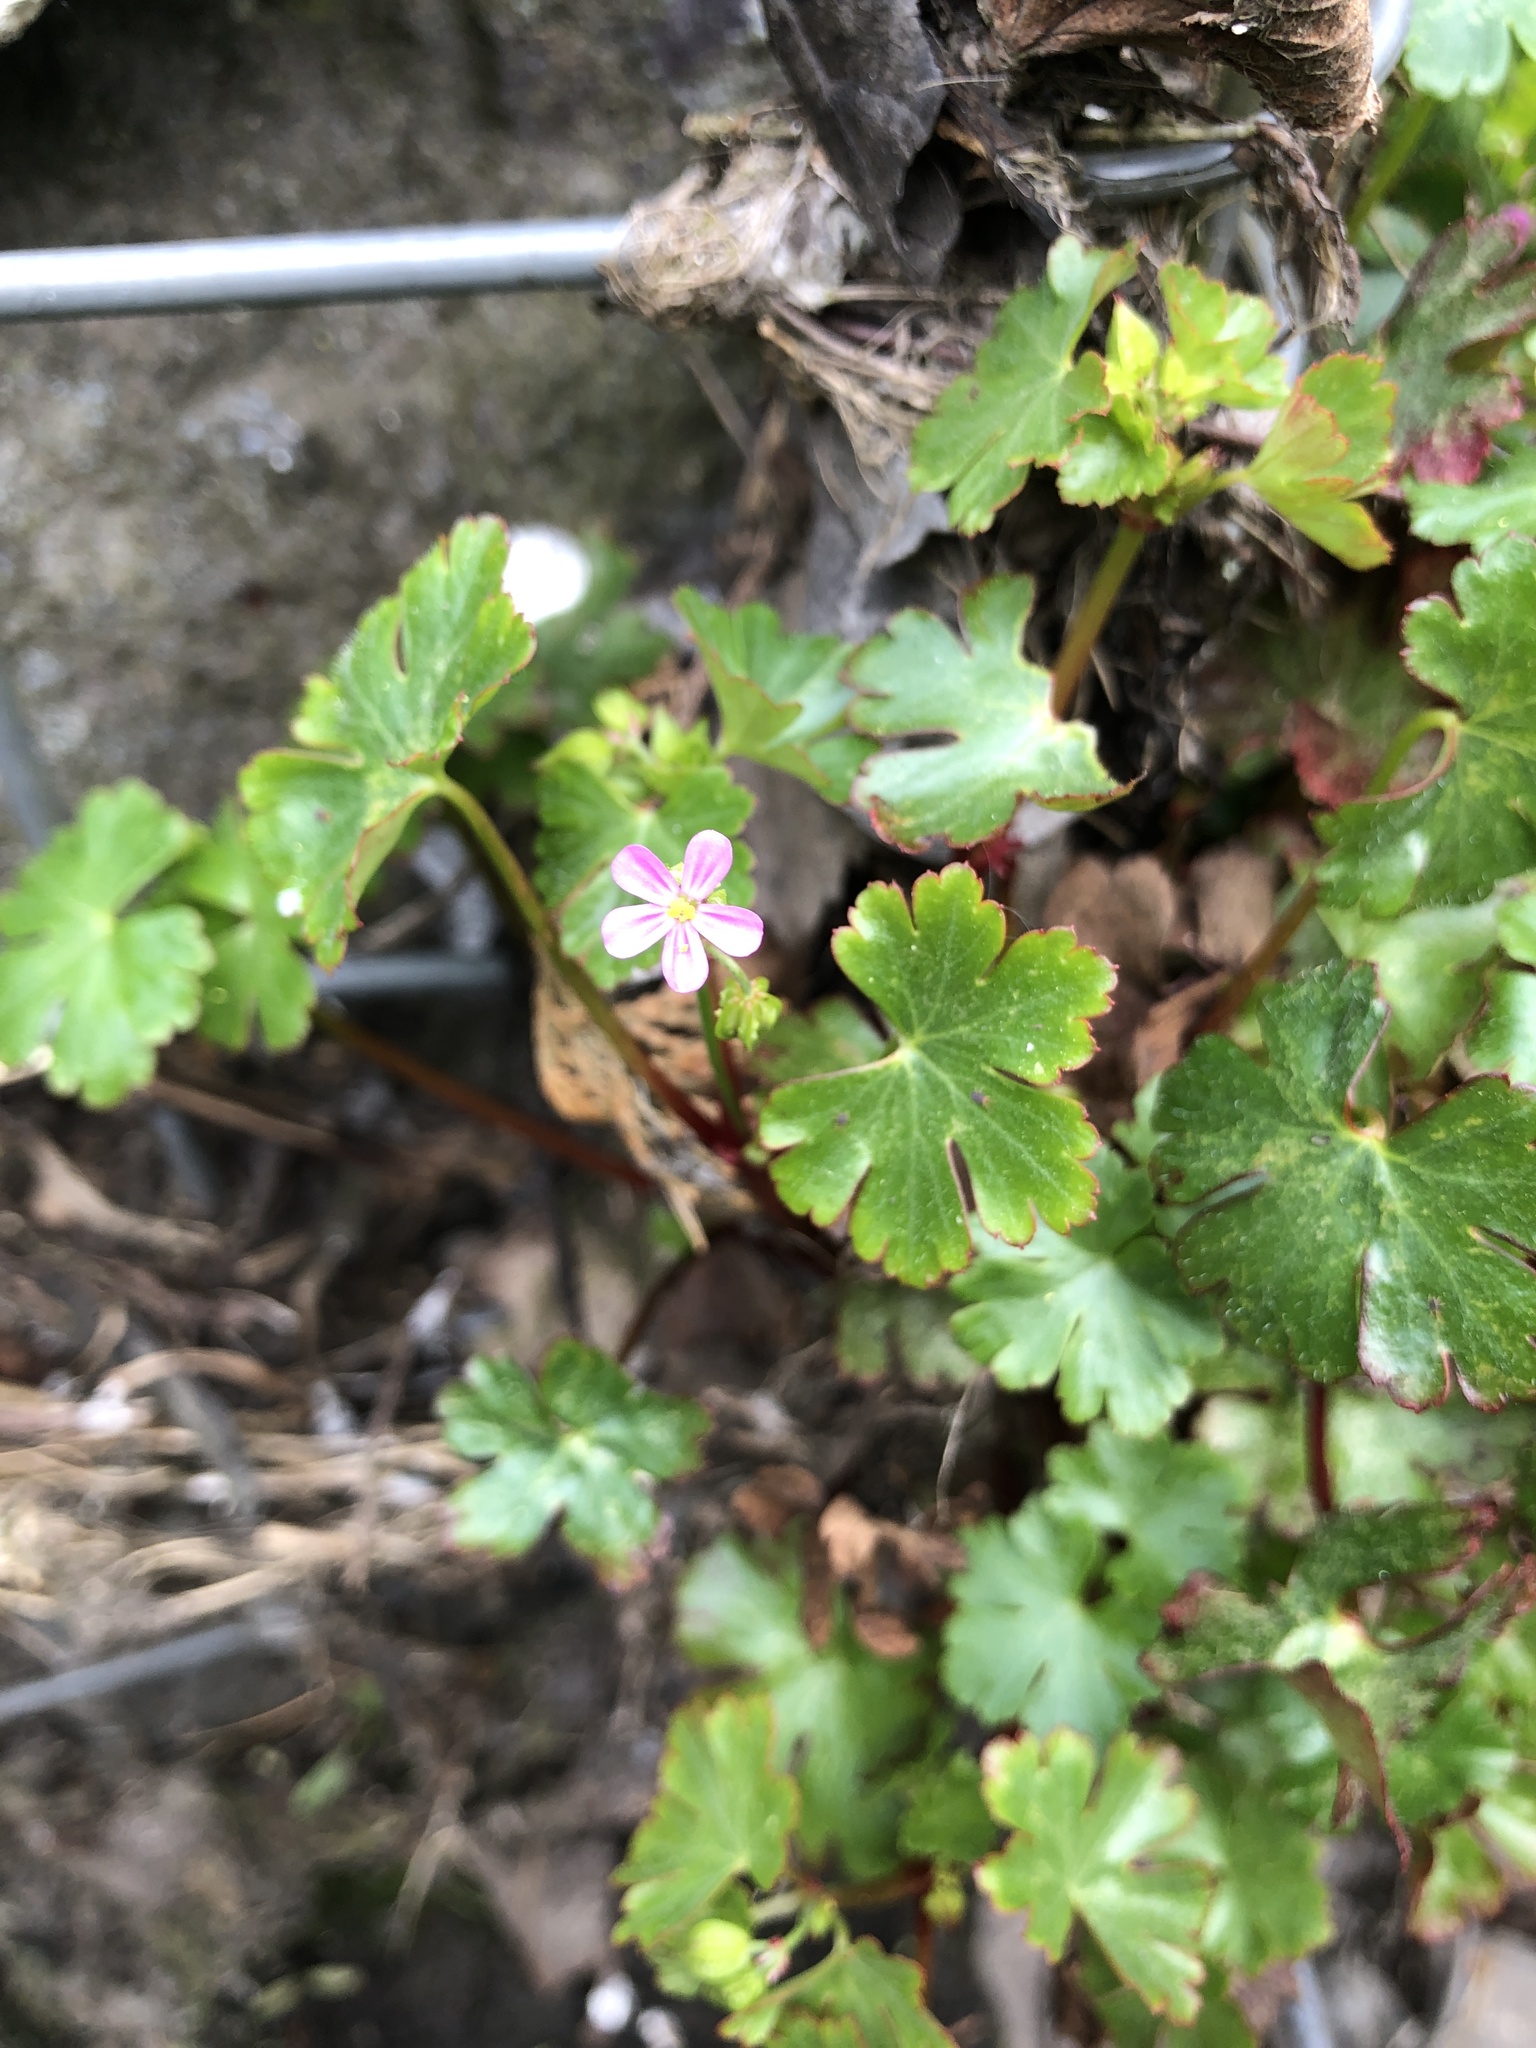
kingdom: Plantae
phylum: Tracheophyta
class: Magnoliopsida
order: Geraniales
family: Geraniaceae
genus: Geranium
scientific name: Geranium lucidum
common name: Shining crane's-bill
